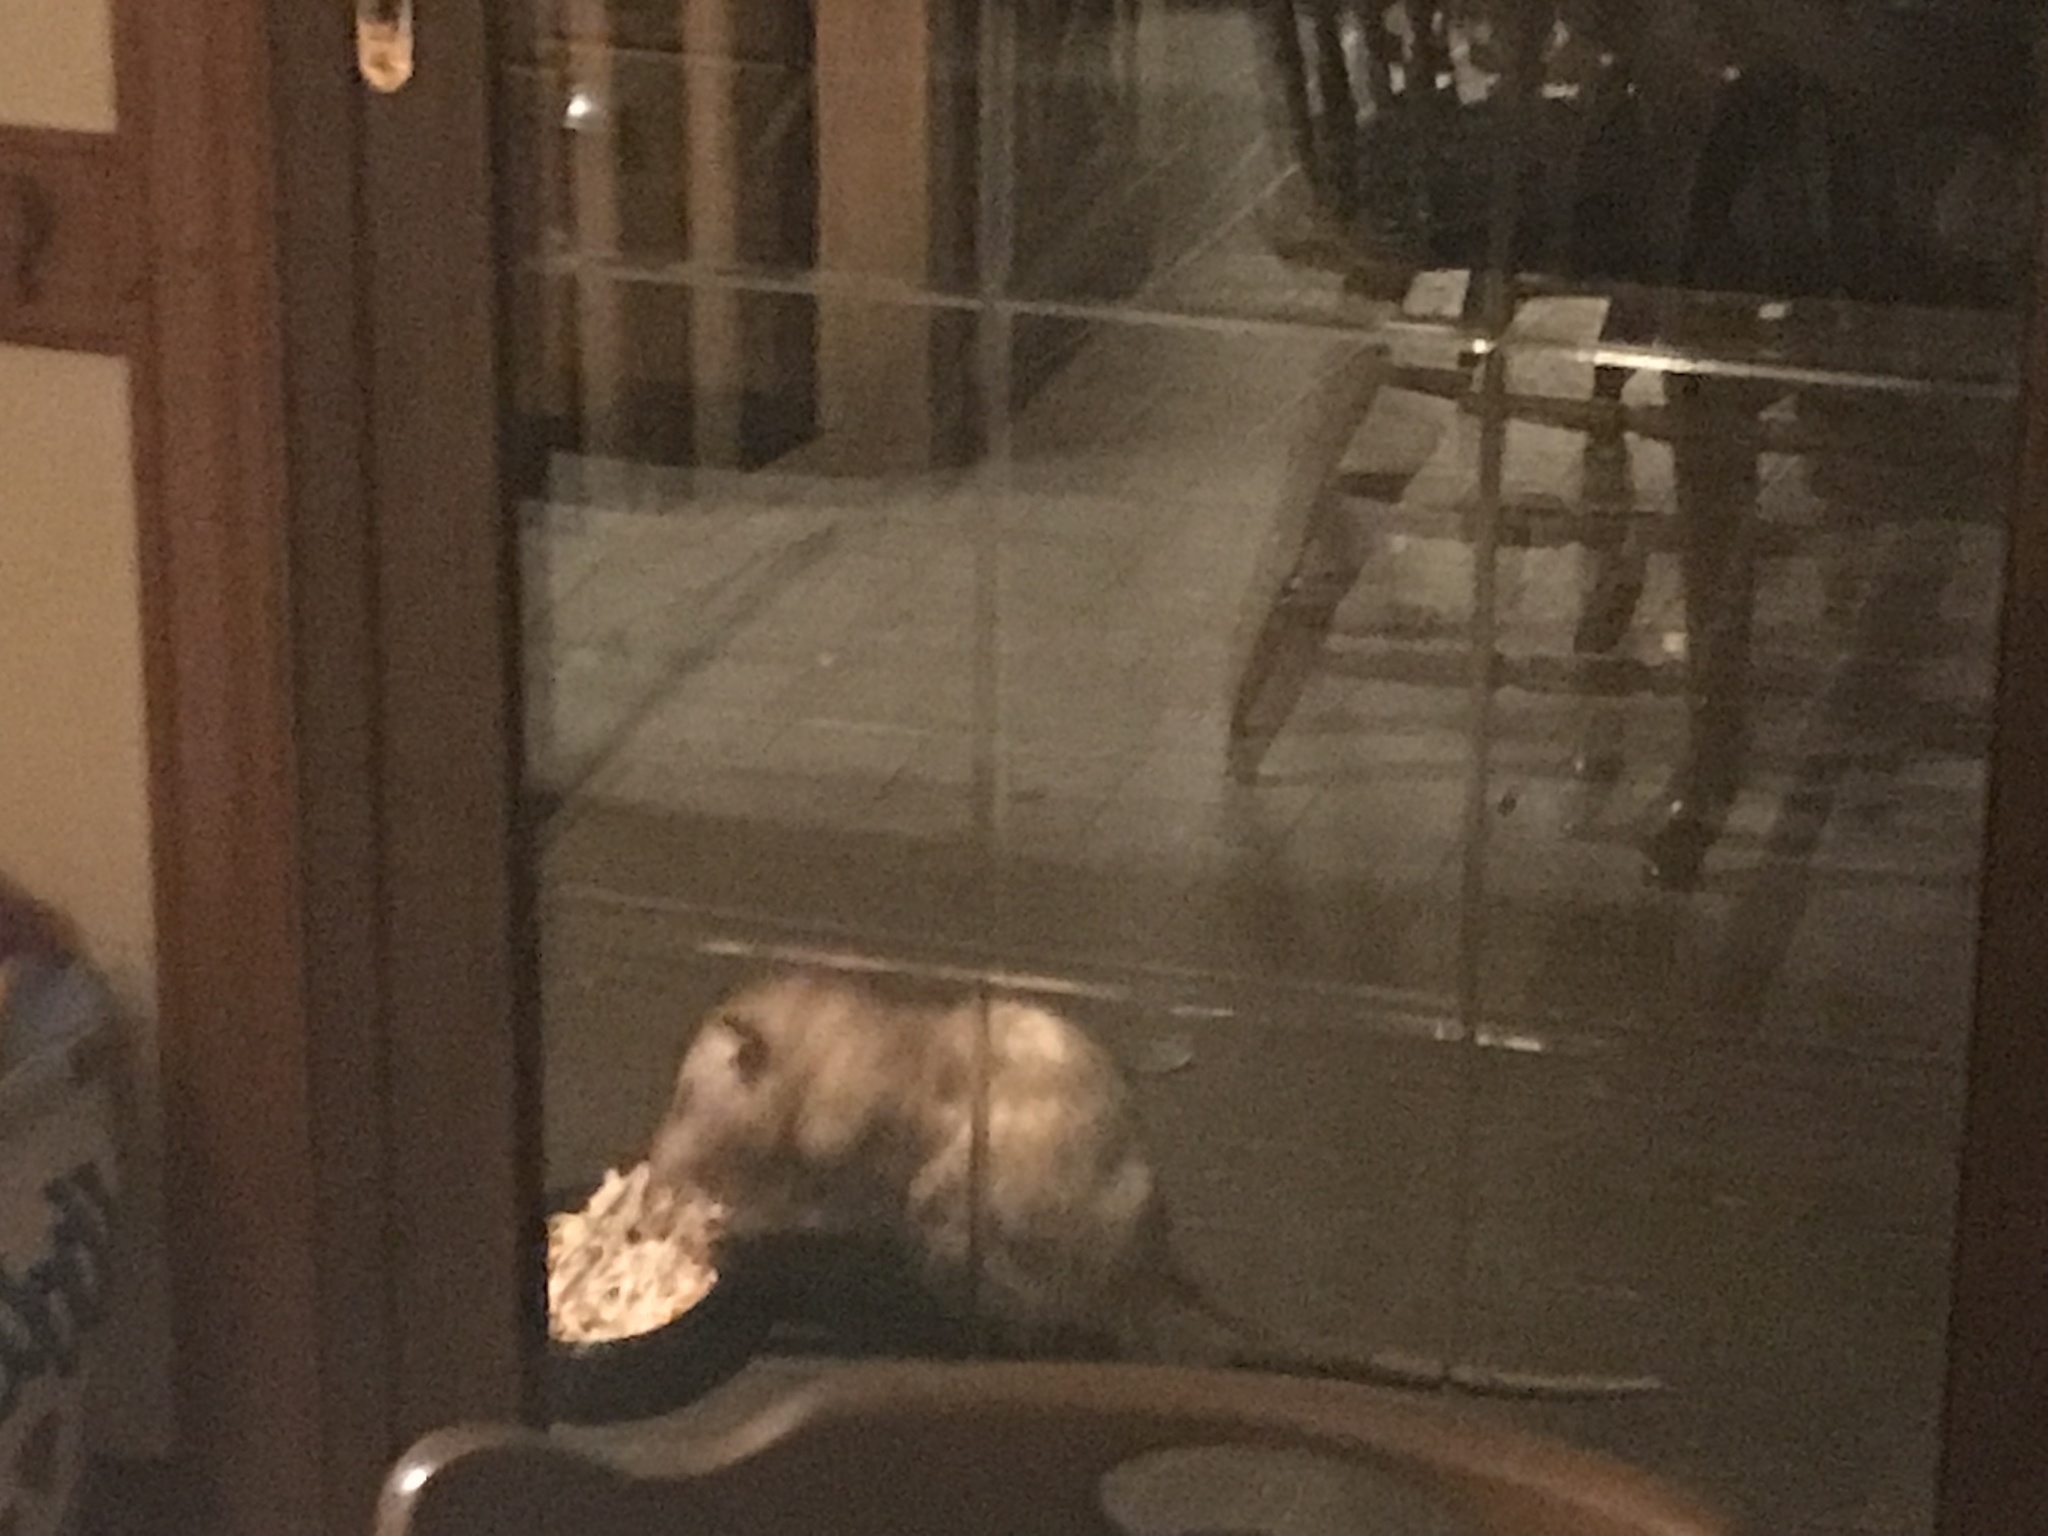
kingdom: Animalia
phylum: Chordata
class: Mammalia
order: Didelphimorphia
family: Didelphidae
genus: Didelphis
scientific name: Didelphis virginiana
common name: Virginia opossum
